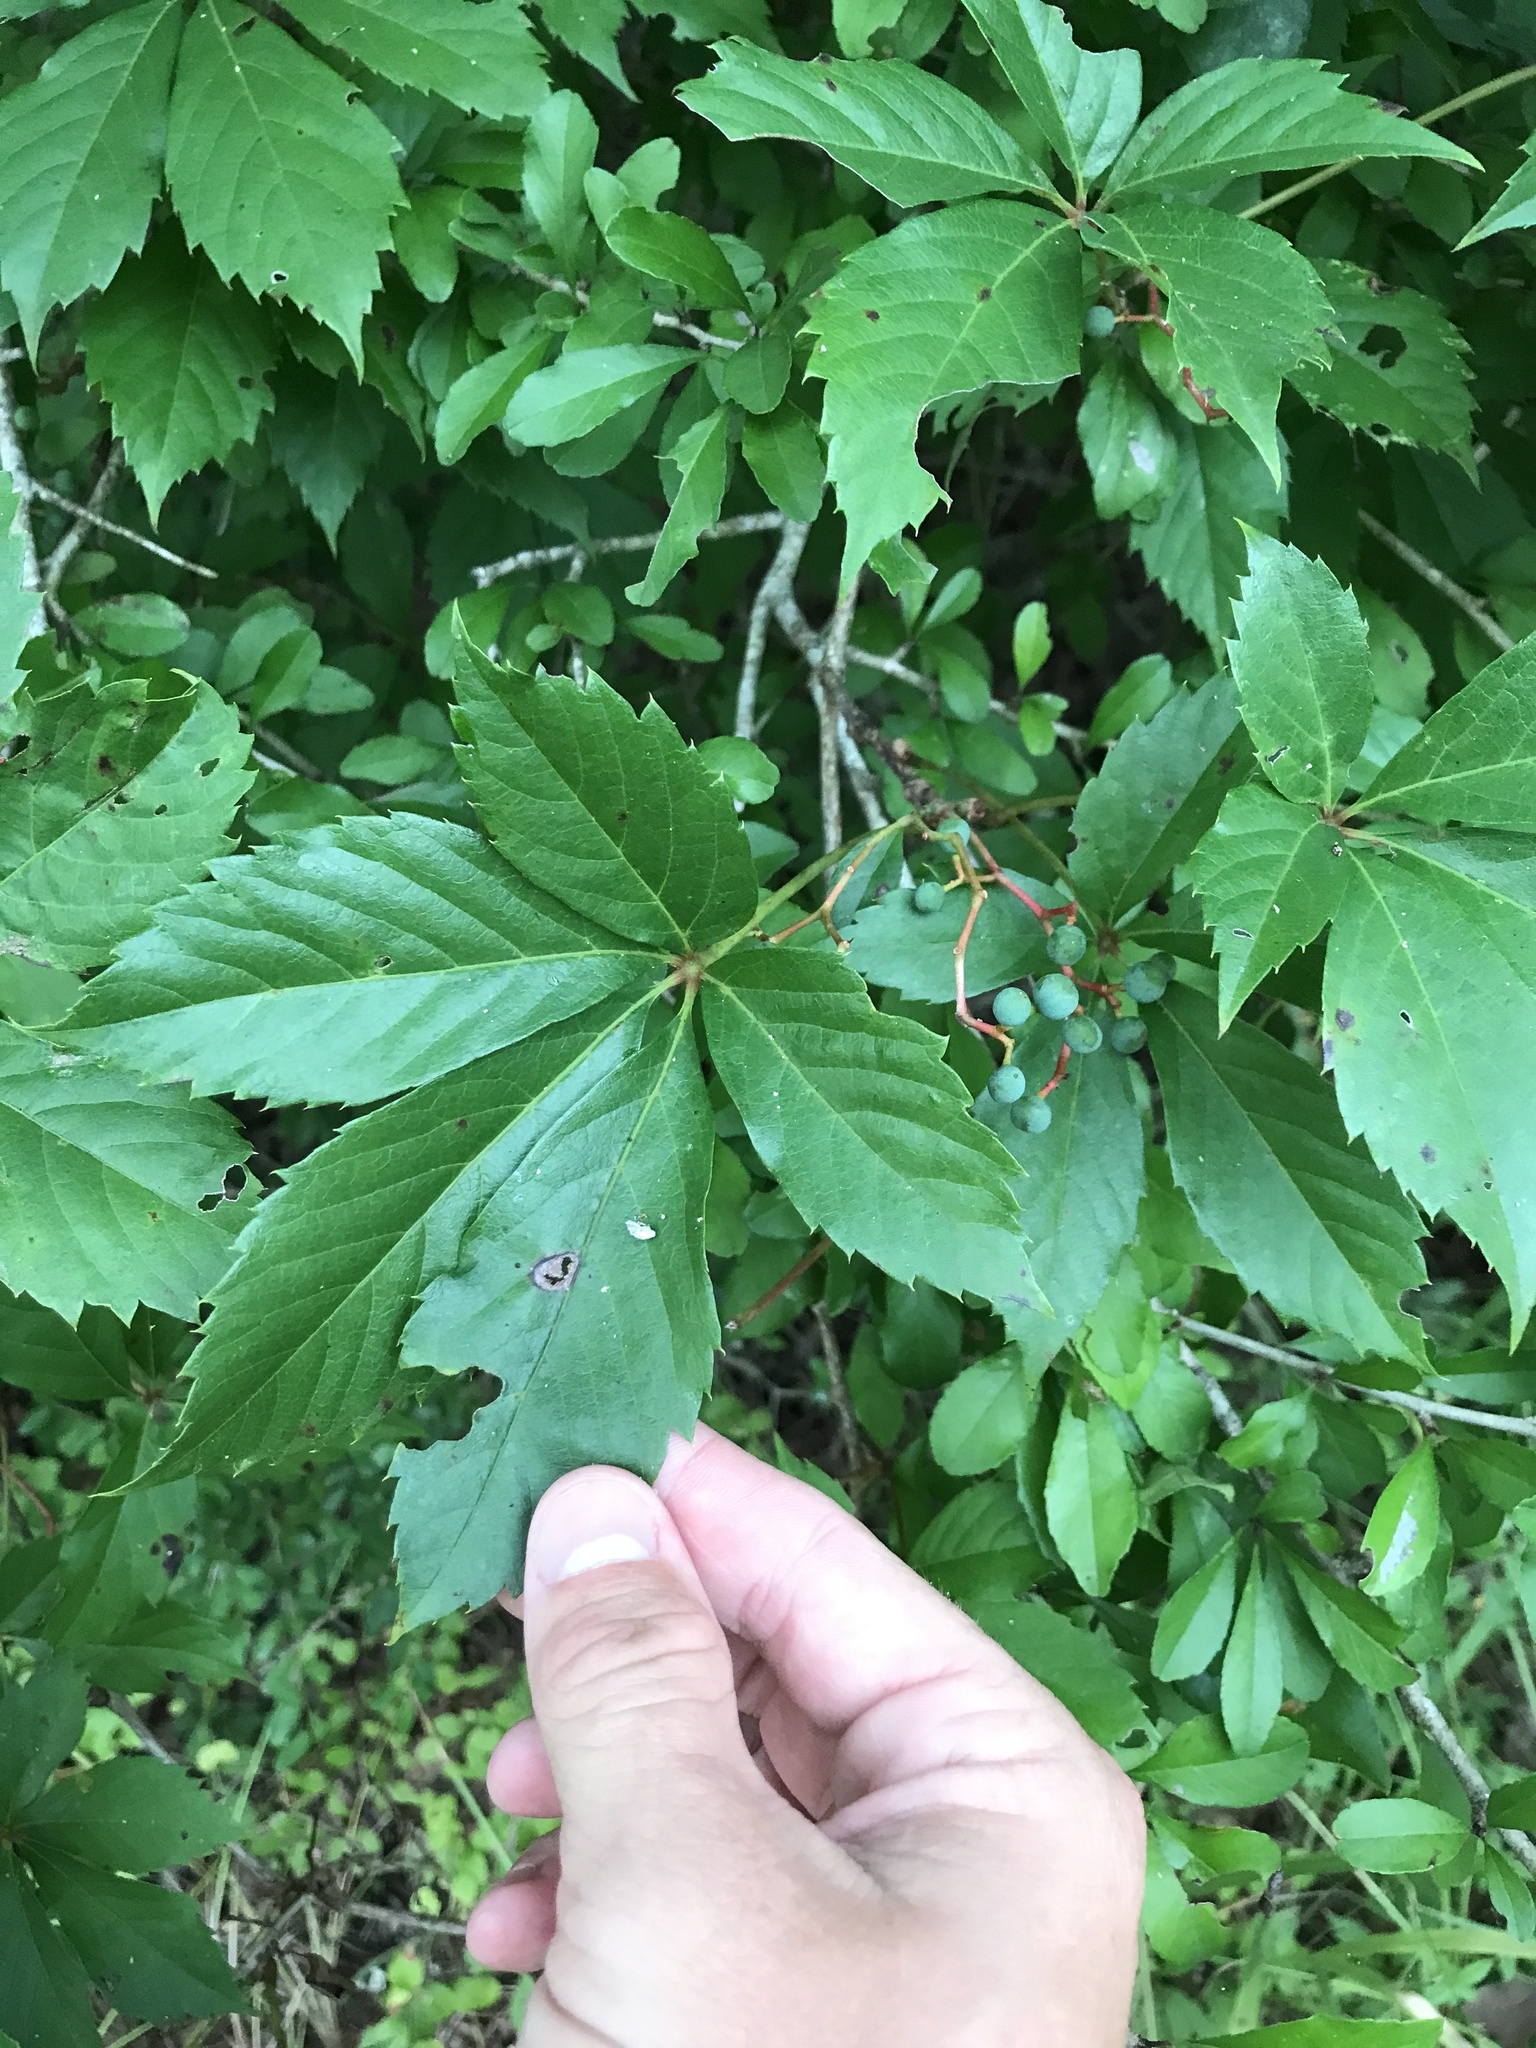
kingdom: Plantae
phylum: Tracheophyta
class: Magnoliopsida
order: Vitales
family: Vitaceae
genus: Parthenocissus
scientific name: Parthenocissus quinquefolia
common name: Virginia-creeper
